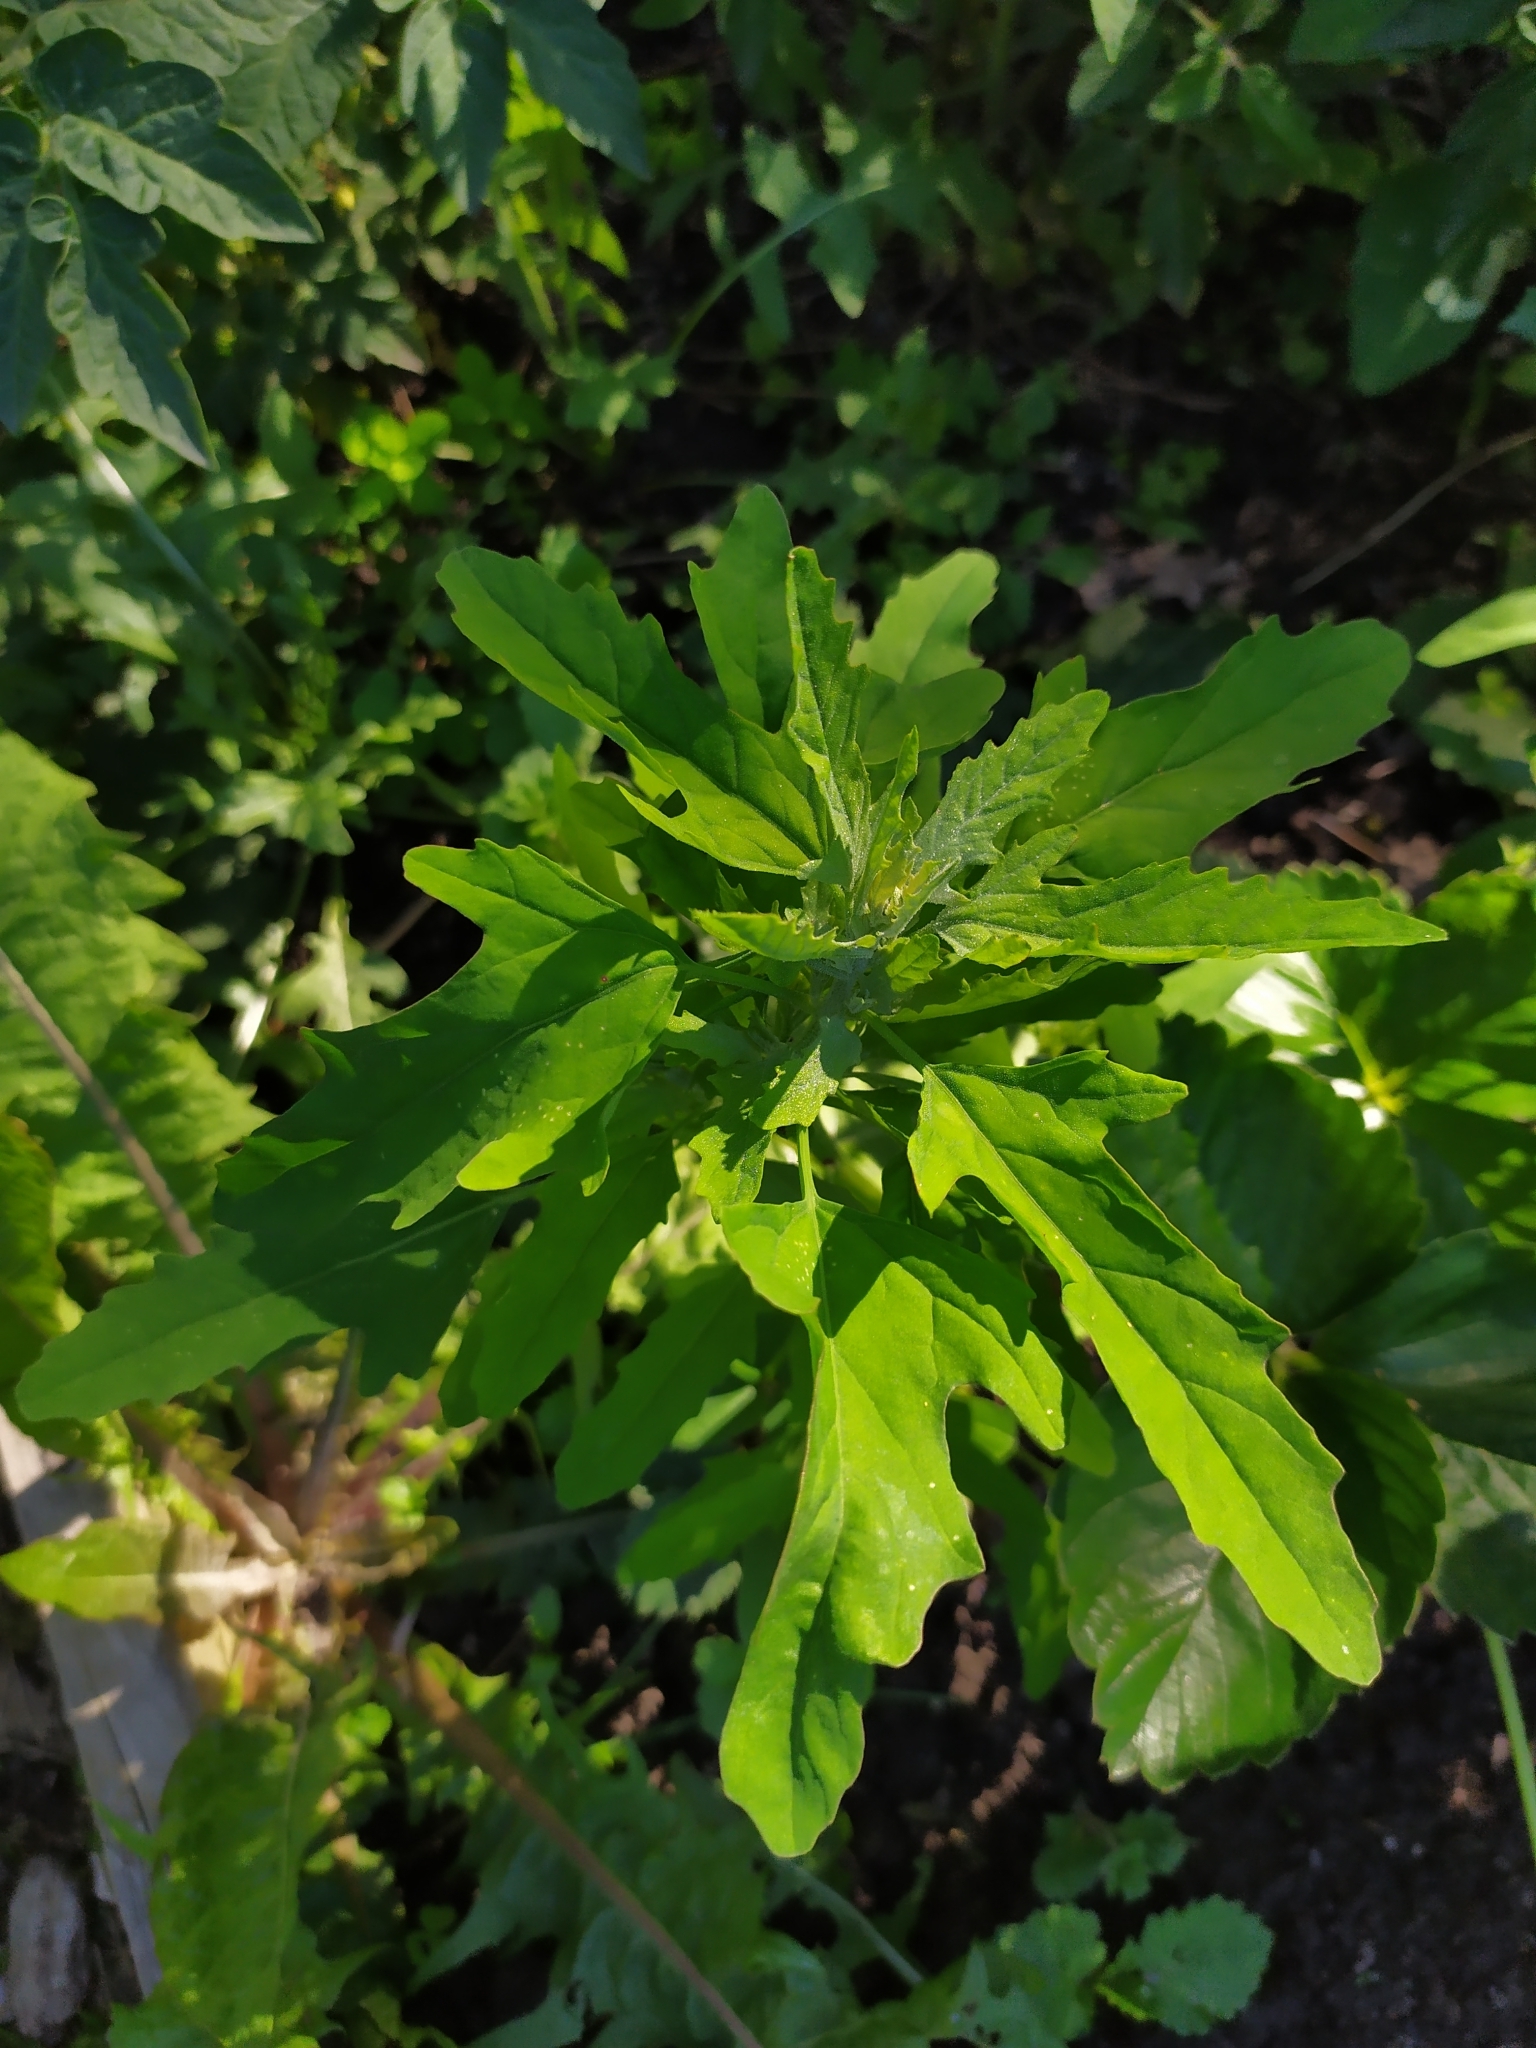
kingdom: Plantae
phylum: Tracheophyta
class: Magnoliopsida
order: Caryophyllales
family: Amaranthaceae
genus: Chenopodium
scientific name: Chenopodium ficifolium
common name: Fig-leaved goosefoot
